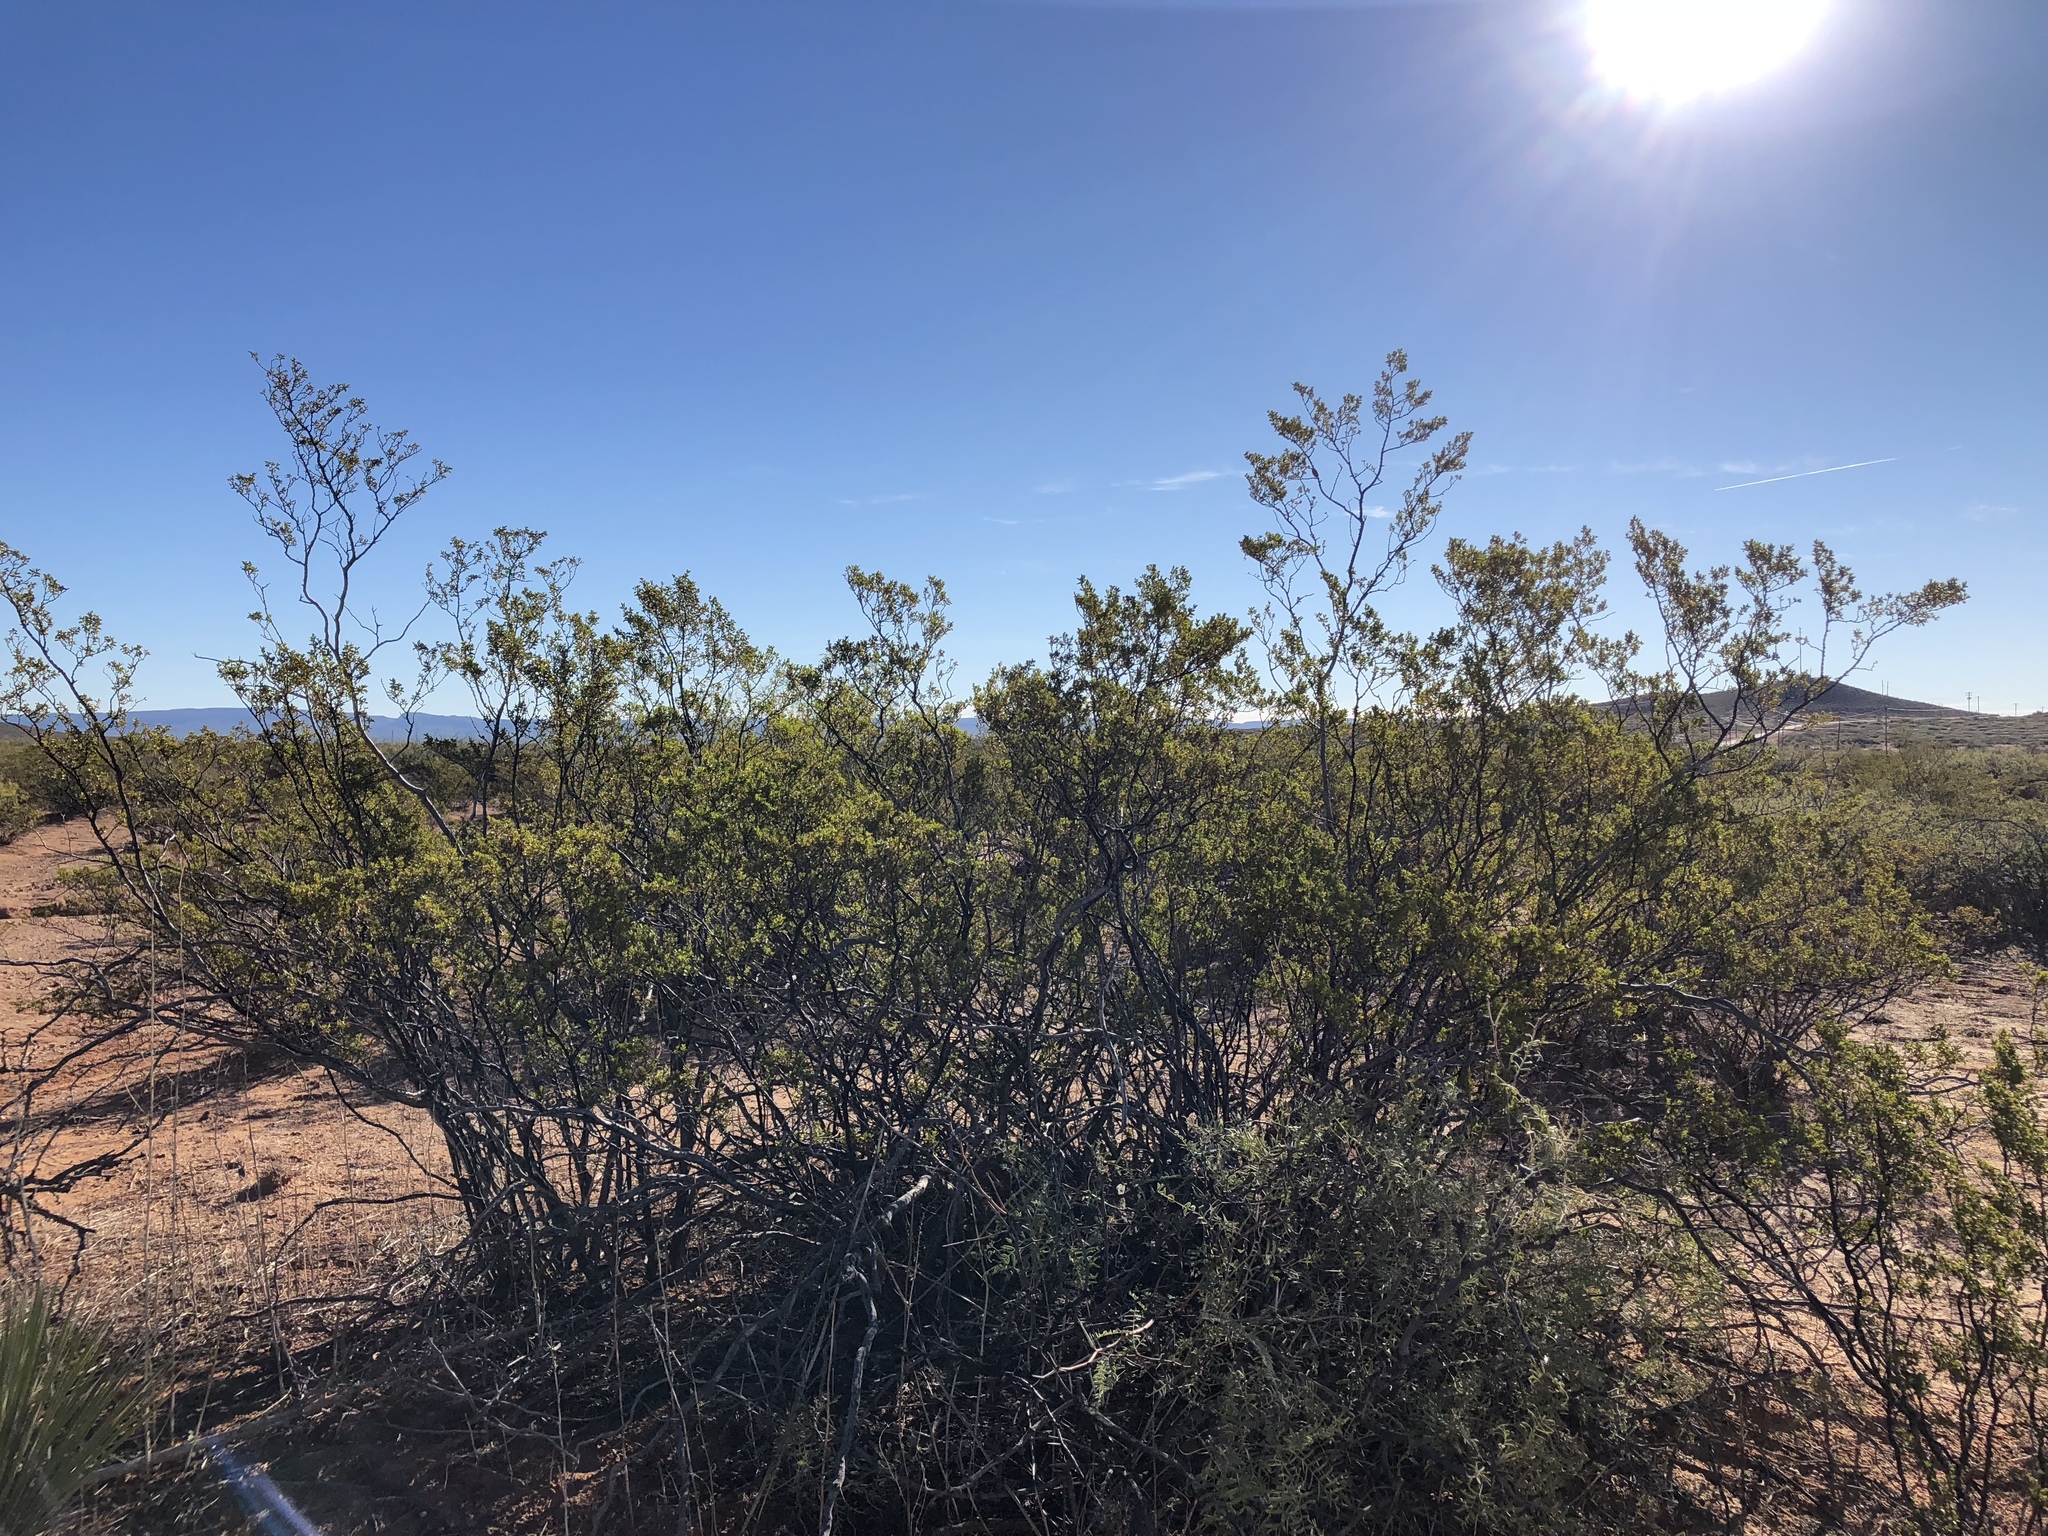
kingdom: Plantae
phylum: Tracheophyta
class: Magnoliopsida
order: Zygophyllales
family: Zygophyllaceae
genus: Larrea
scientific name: Larrea tridentata
